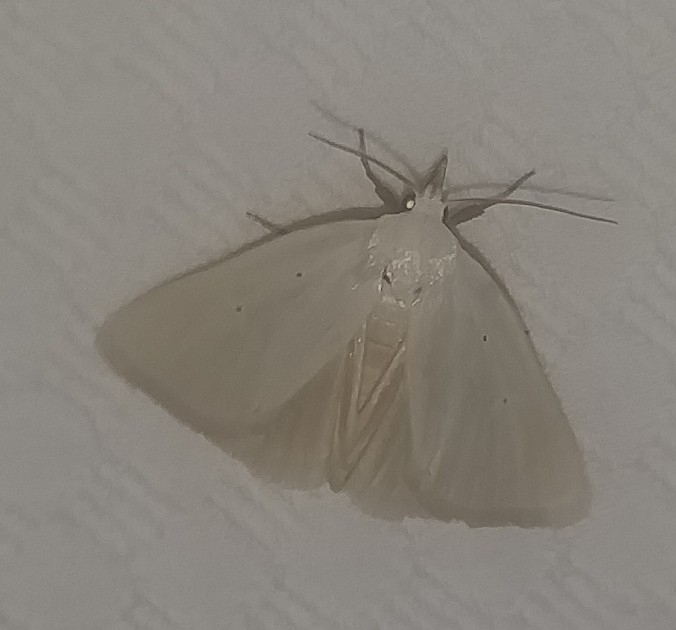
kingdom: Animalia
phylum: Arthropoda
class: Insecta
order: Lepidoptera
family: Erebidae
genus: Gabara
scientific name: Gabara subnivosella
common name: Snowy gabara
